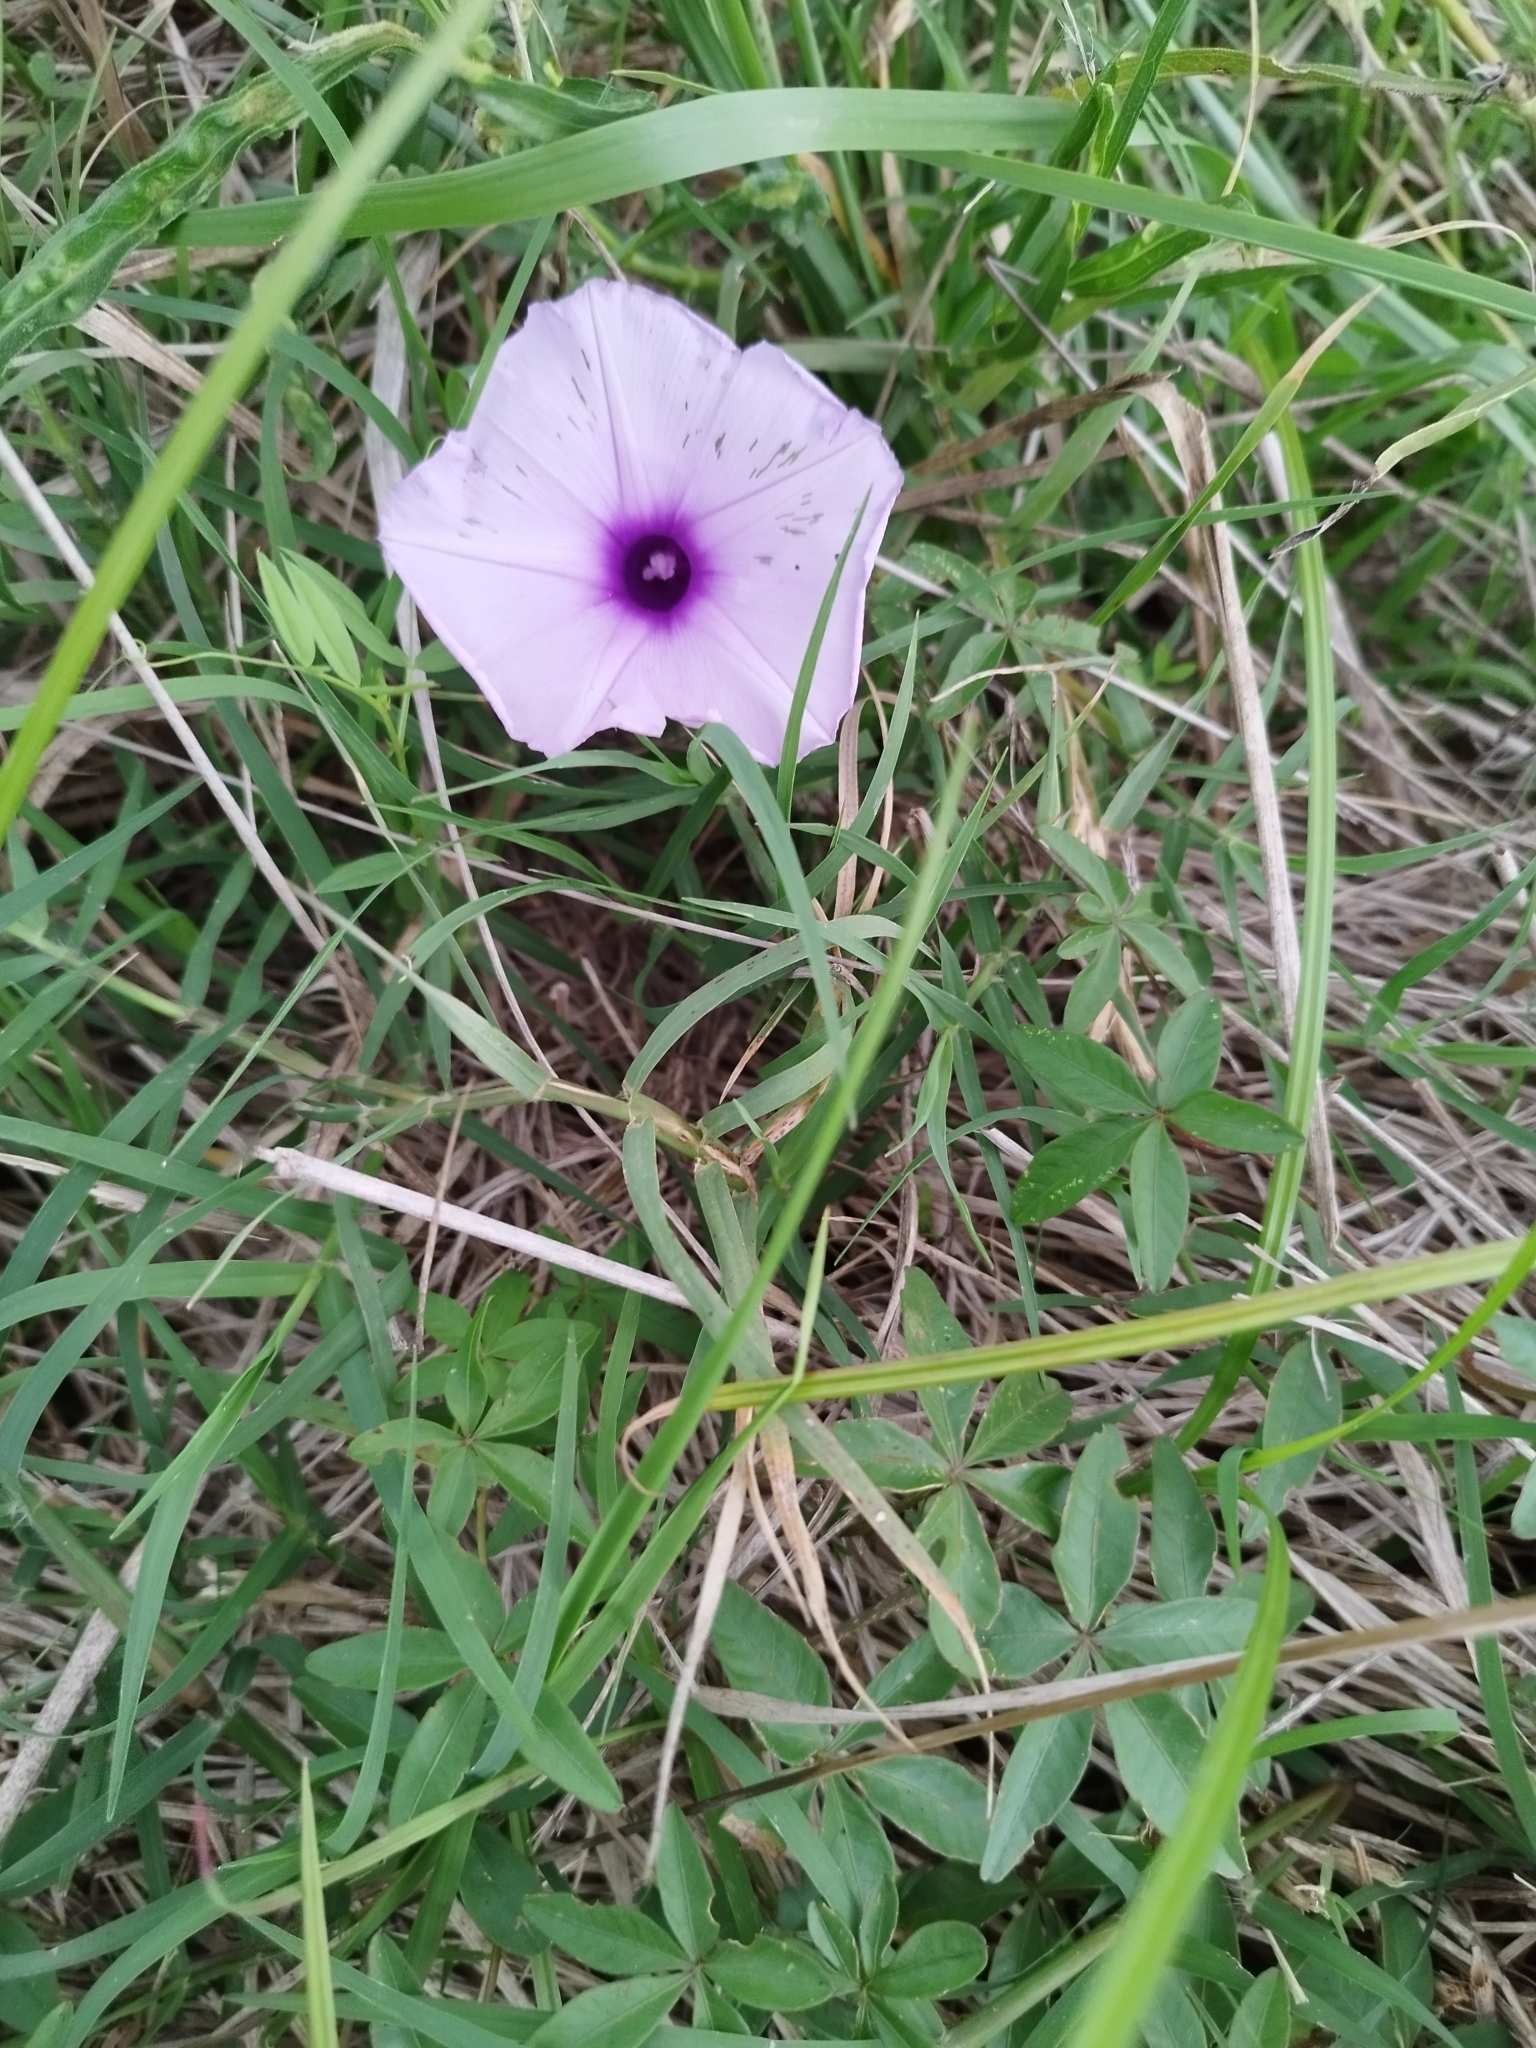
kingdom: Plantae
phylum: Tracheophyta
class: Magnoliopsida
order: Solanales
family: Convolvulaceae
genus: Ipomoea
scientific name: Ipomoea cairica
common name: Mile a minute vine
